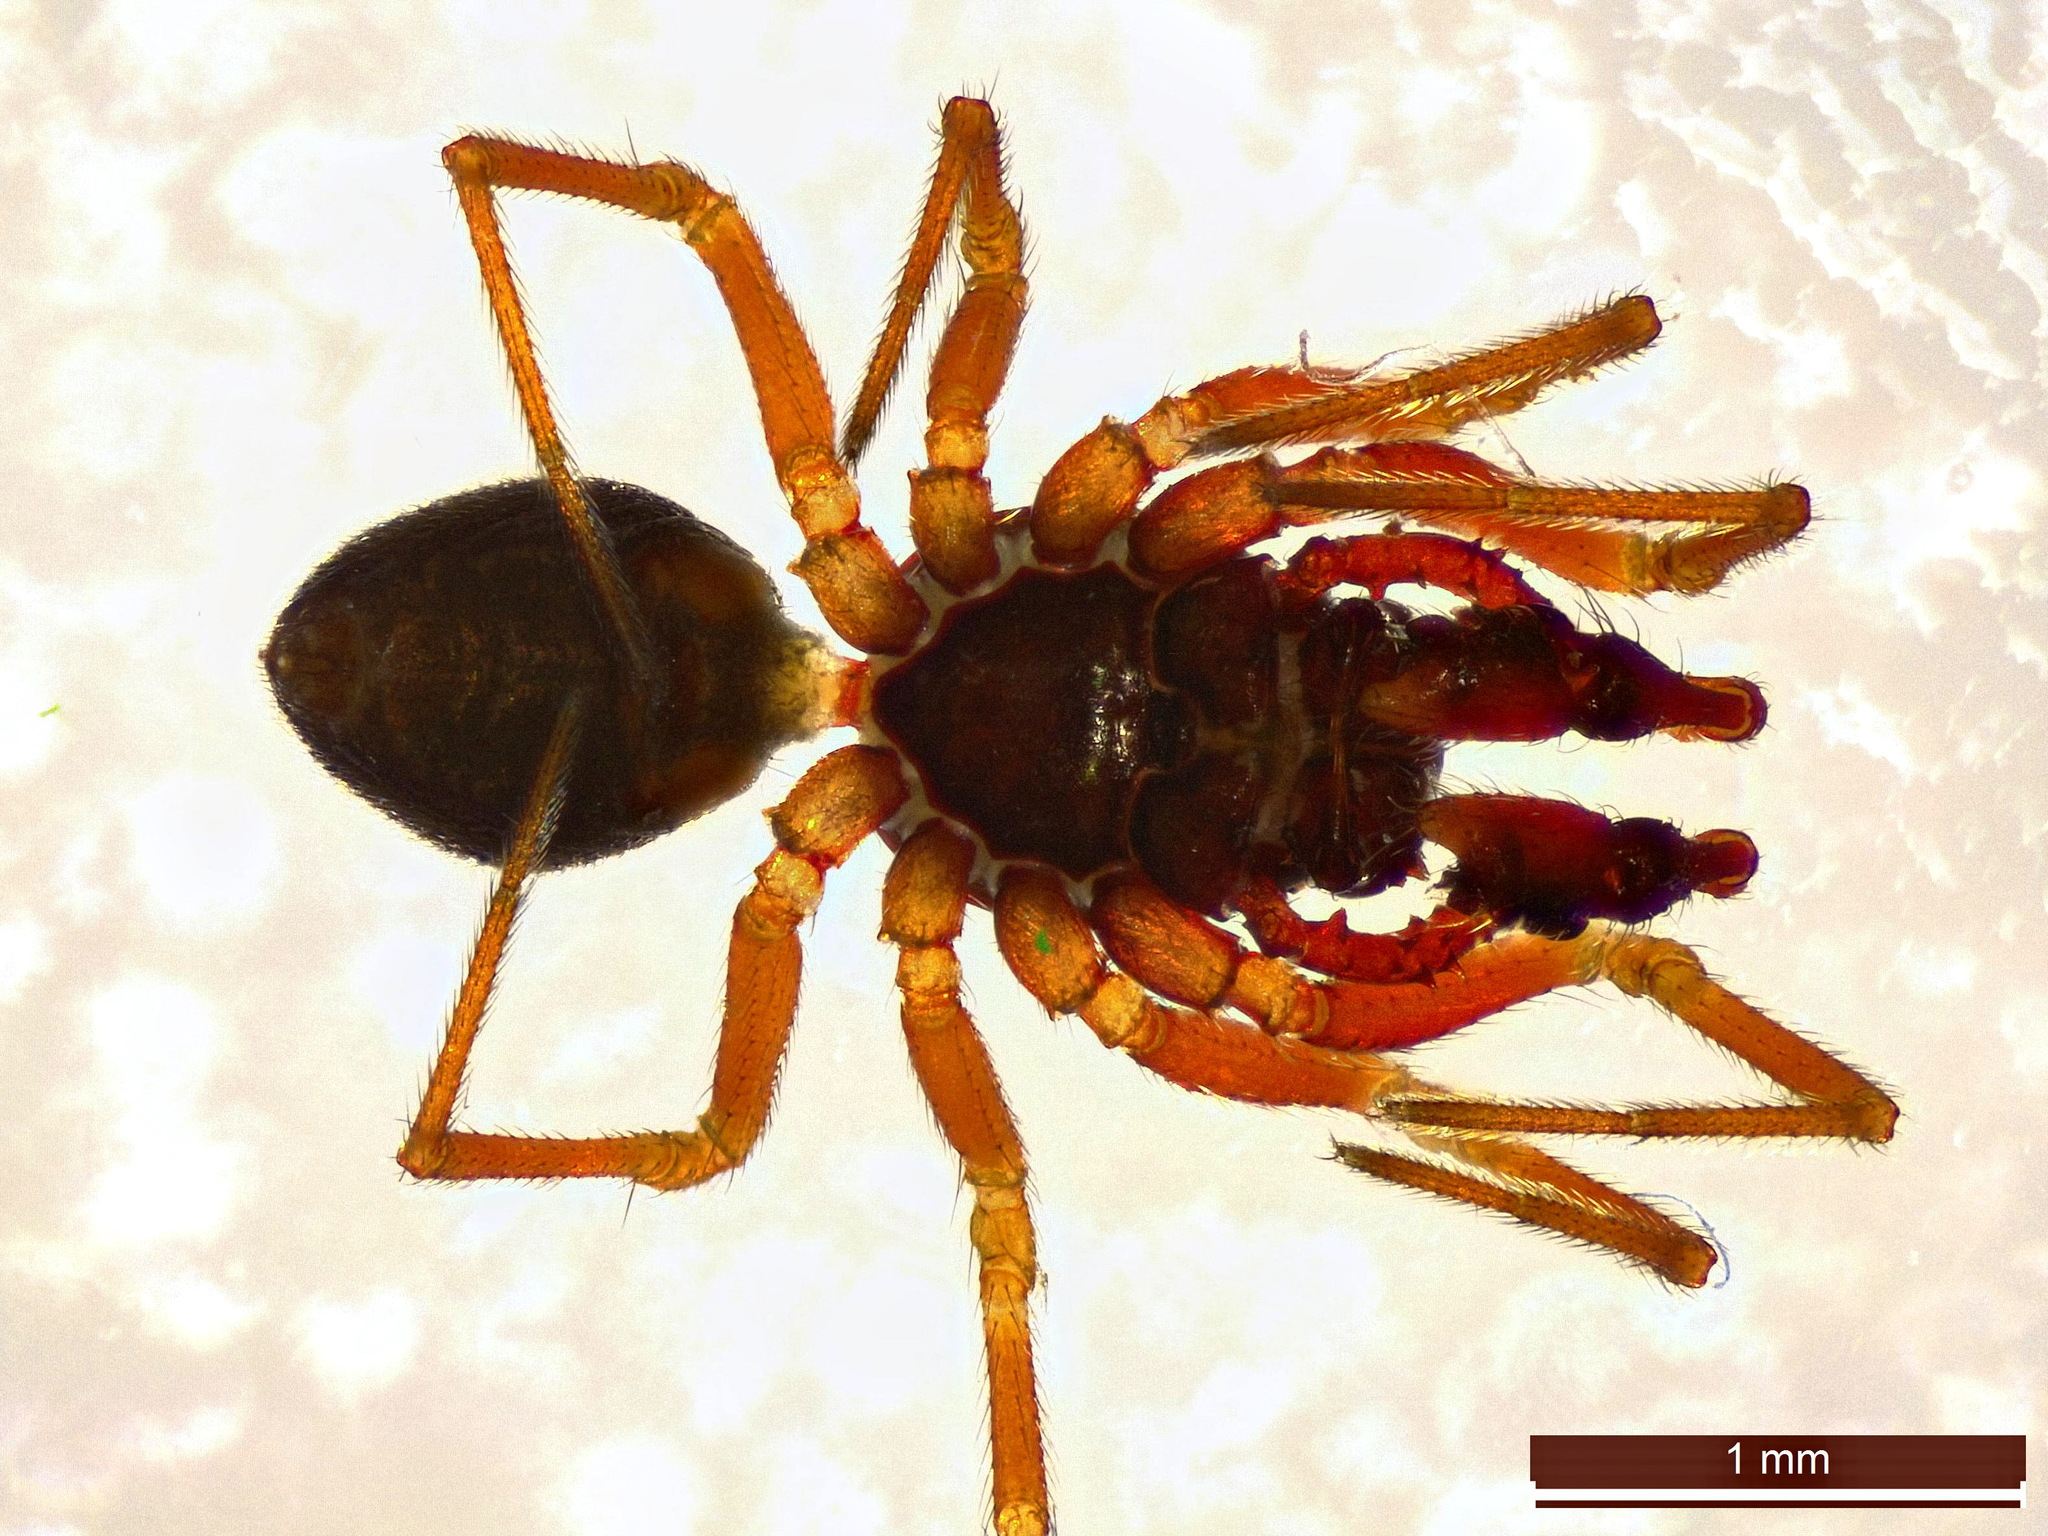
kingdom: Animalia
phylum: Arthropoda
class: Arachnida
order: Araneae
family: Linyphiidae
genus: Erigone
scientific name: Erigone atra
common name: Post dwarf weaver
